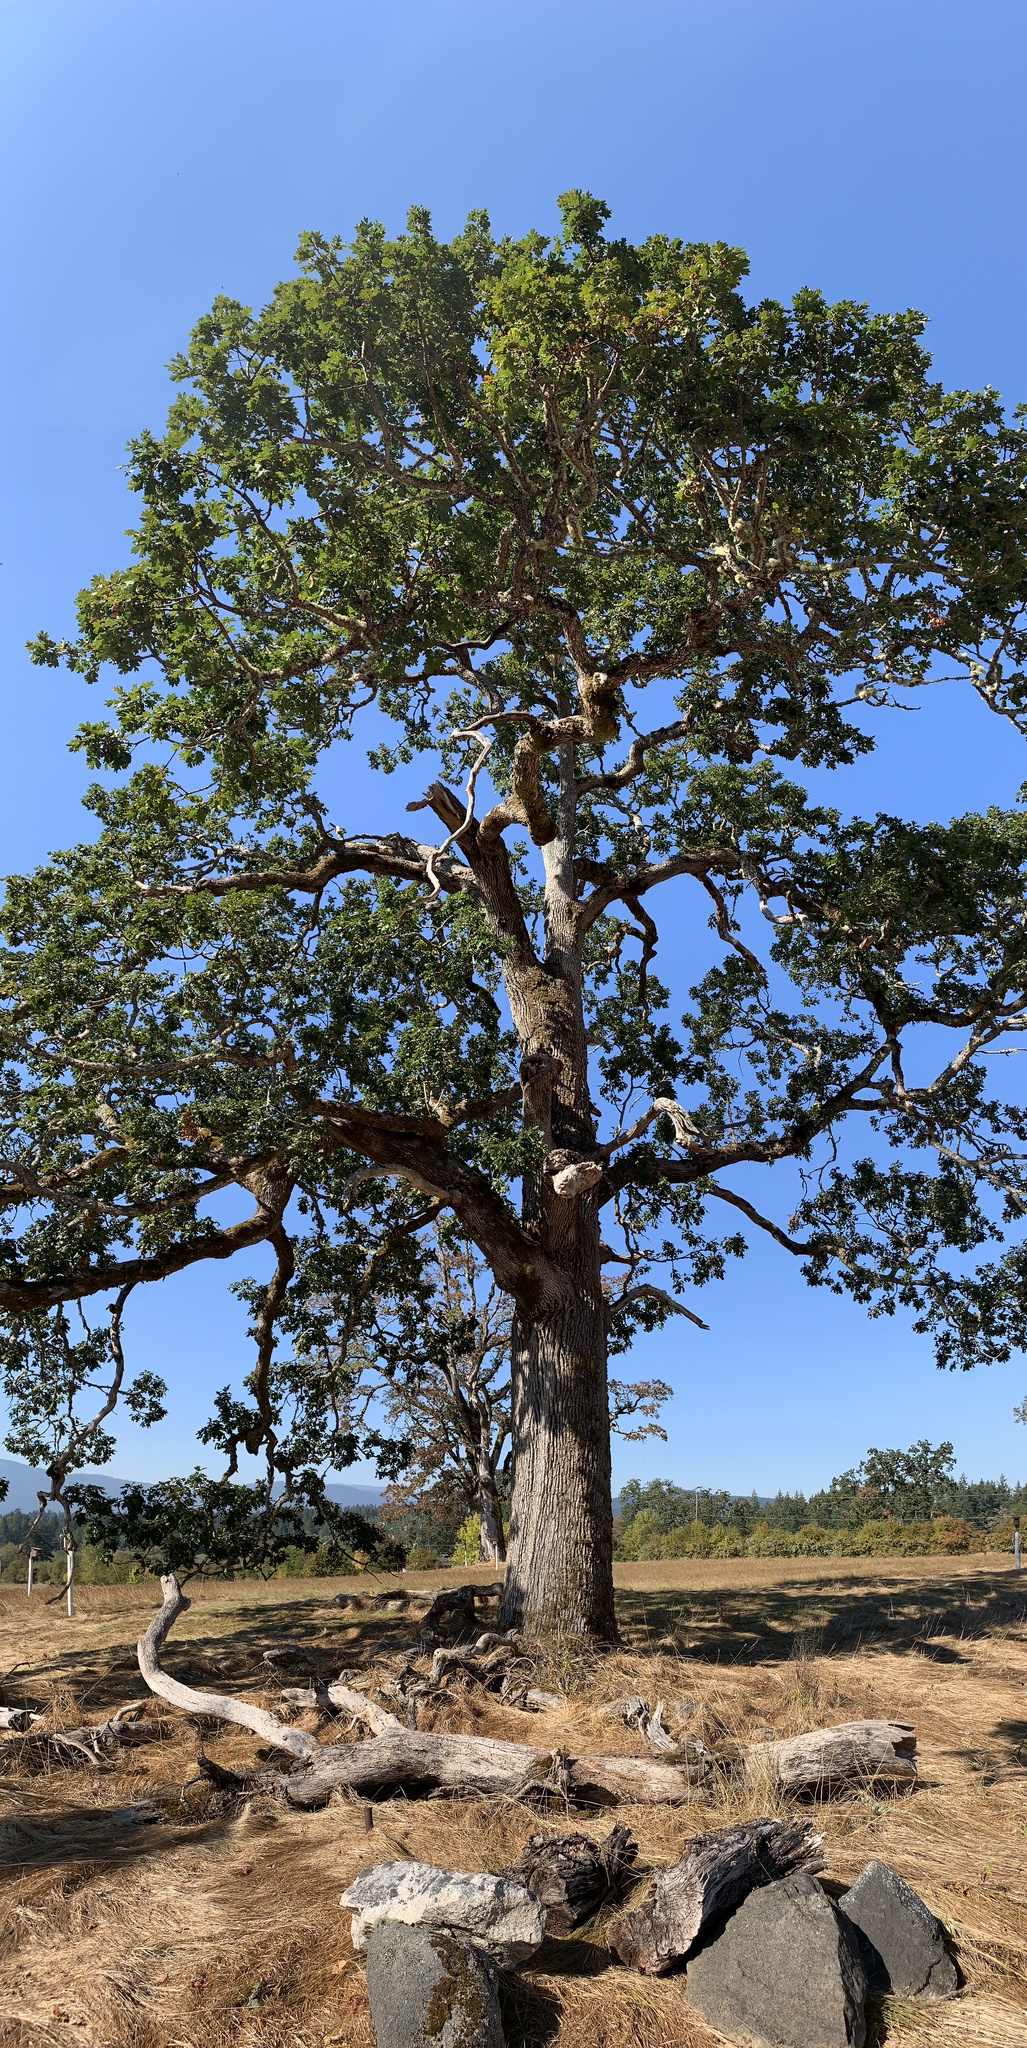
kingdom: Plantae
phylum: Tracheophyta
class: Magnoliopsida
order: Fagales
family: Fagaceae
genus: Quercus
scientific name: Quercus garryana
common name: Garry oak
